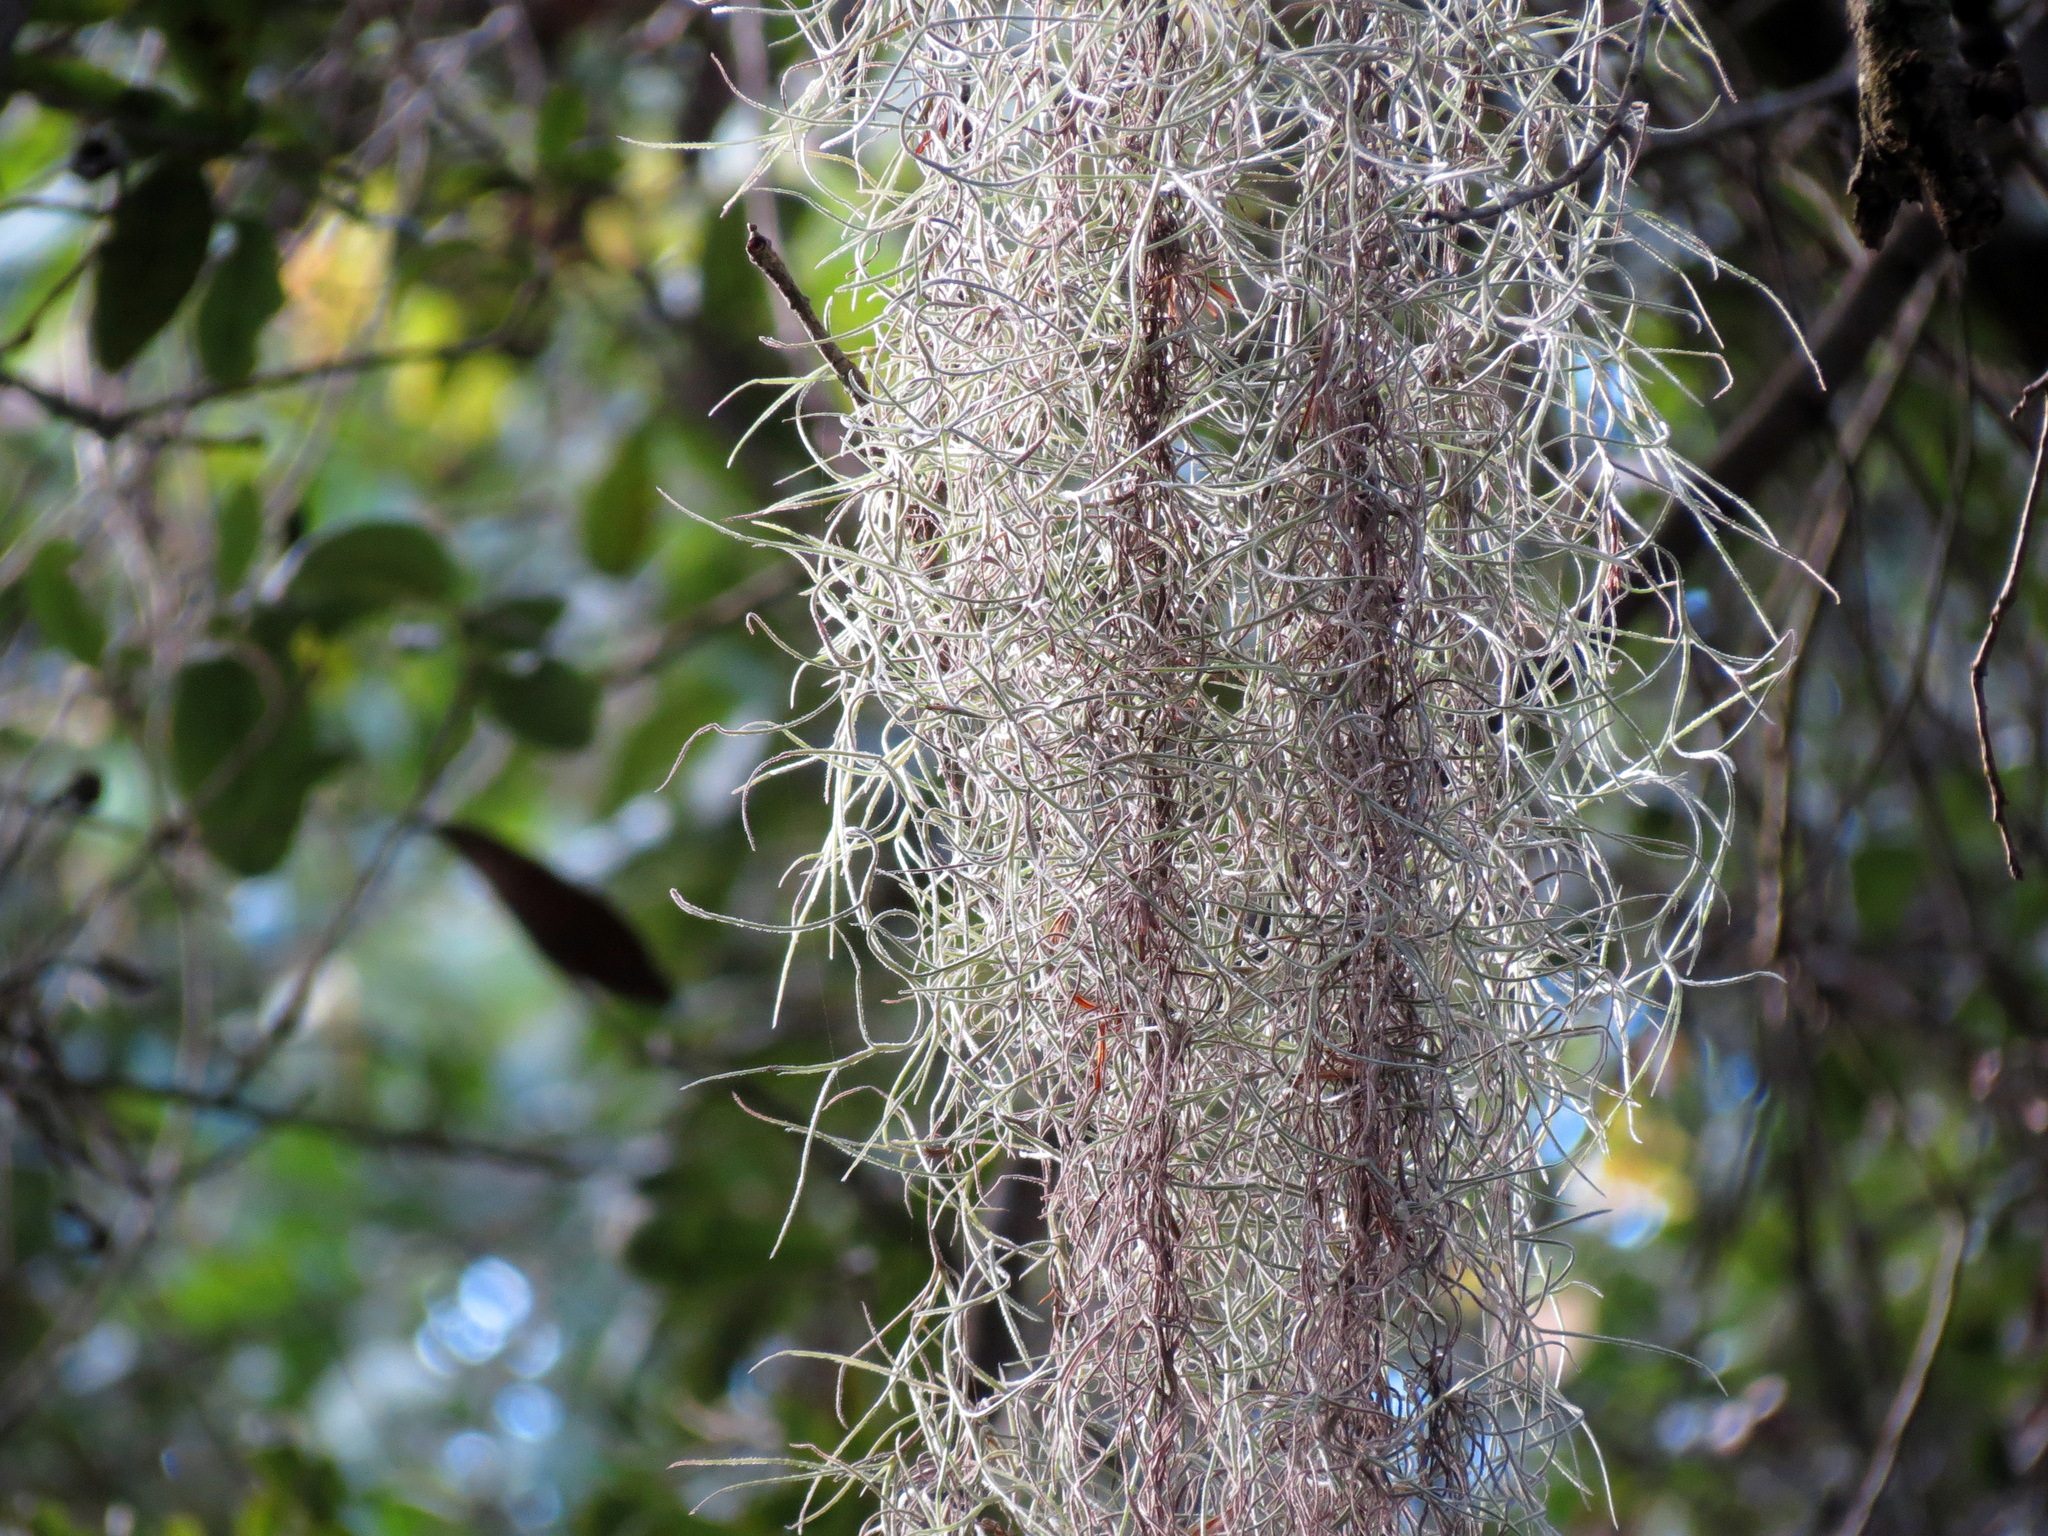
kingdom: Plantae
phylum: Tracheophyta
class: Liliopsida
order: Poales
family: Bromeliaceae
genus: Tillandsia
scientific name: Tillandsia usneoides
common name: Spanish moss
